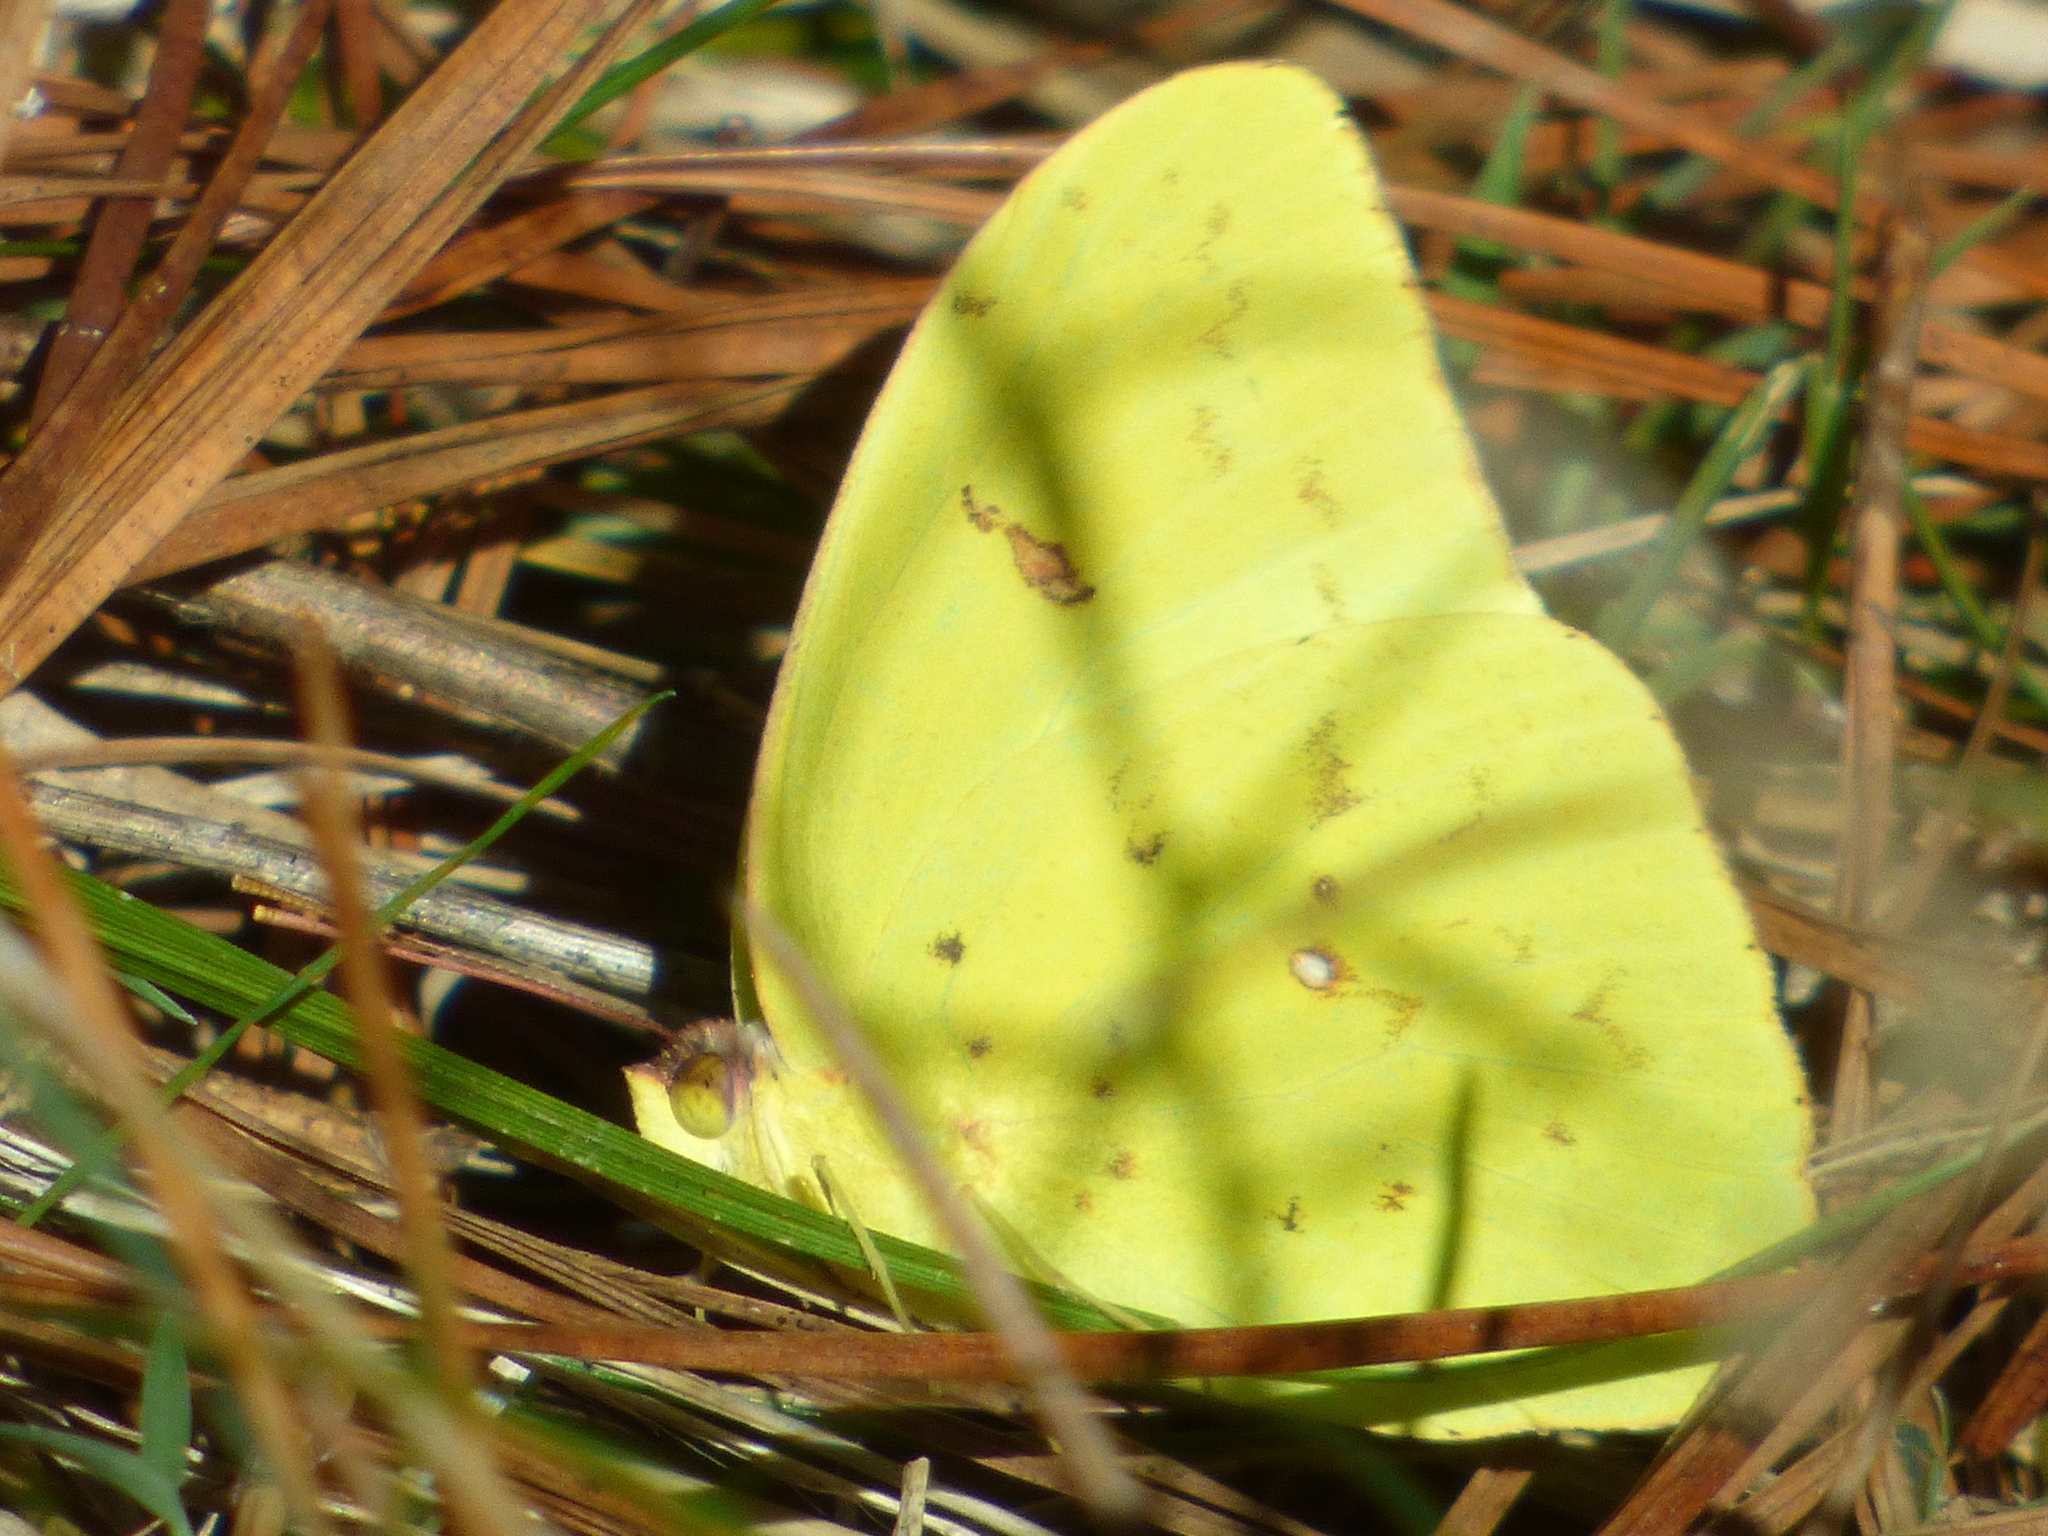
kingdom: Animalia
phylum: Arthropoda
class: Insecta
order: Lepidoptera
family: Pieridae
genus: Phoebis
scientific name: Phoebis sennae
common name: Cloudless sulphur
